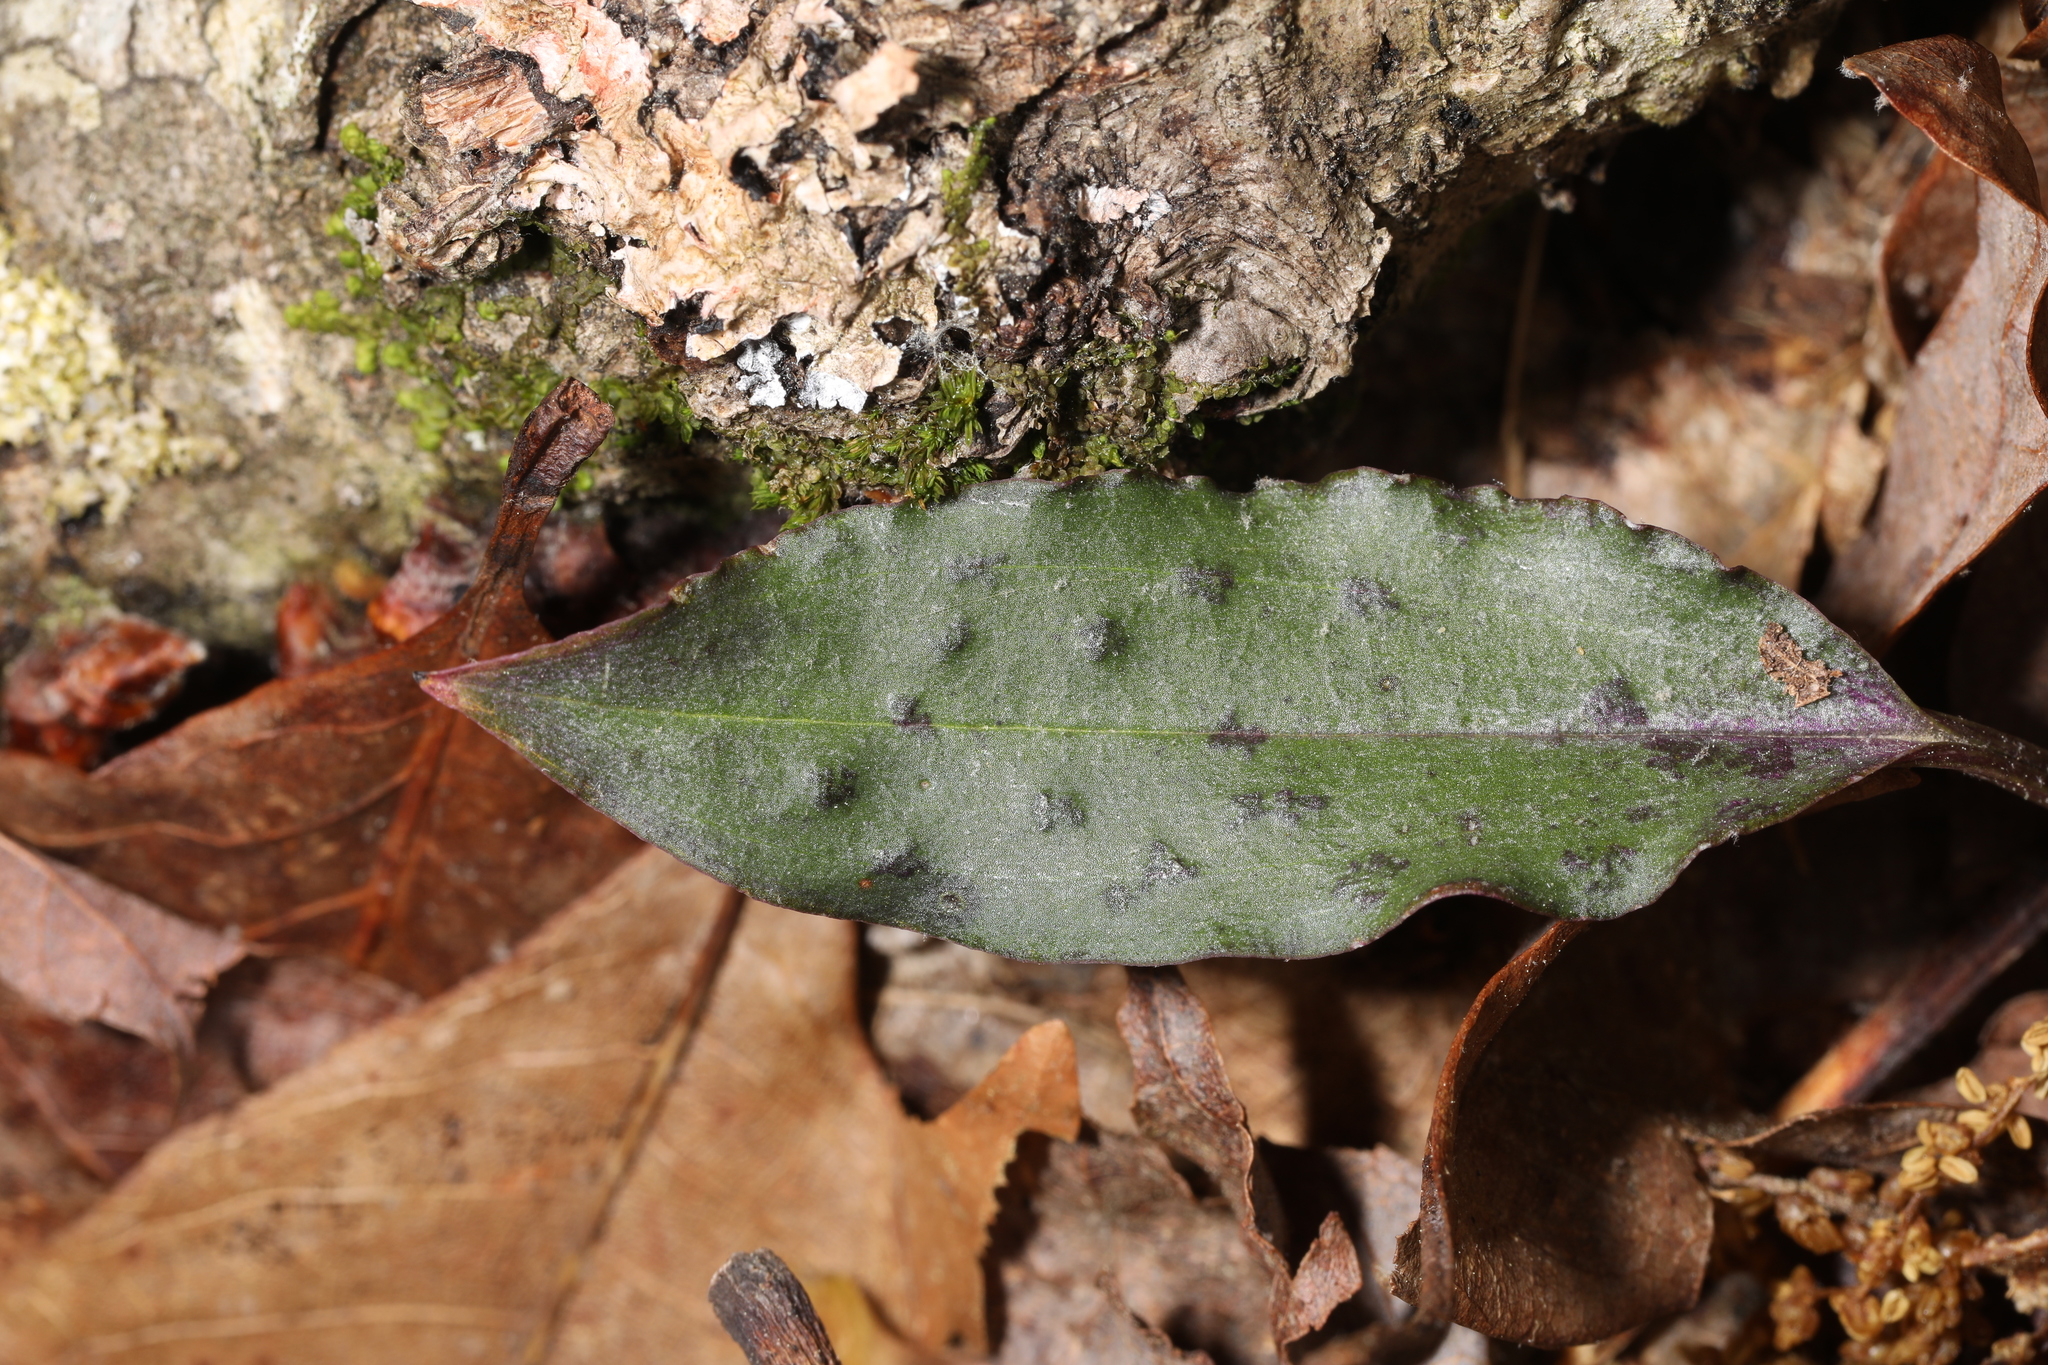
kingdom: Plantae
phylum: Tracheophyta
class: Liliopsida
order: Asparagales
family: Orchidaceae
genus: Tipularia
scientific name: Tipularia discolor
